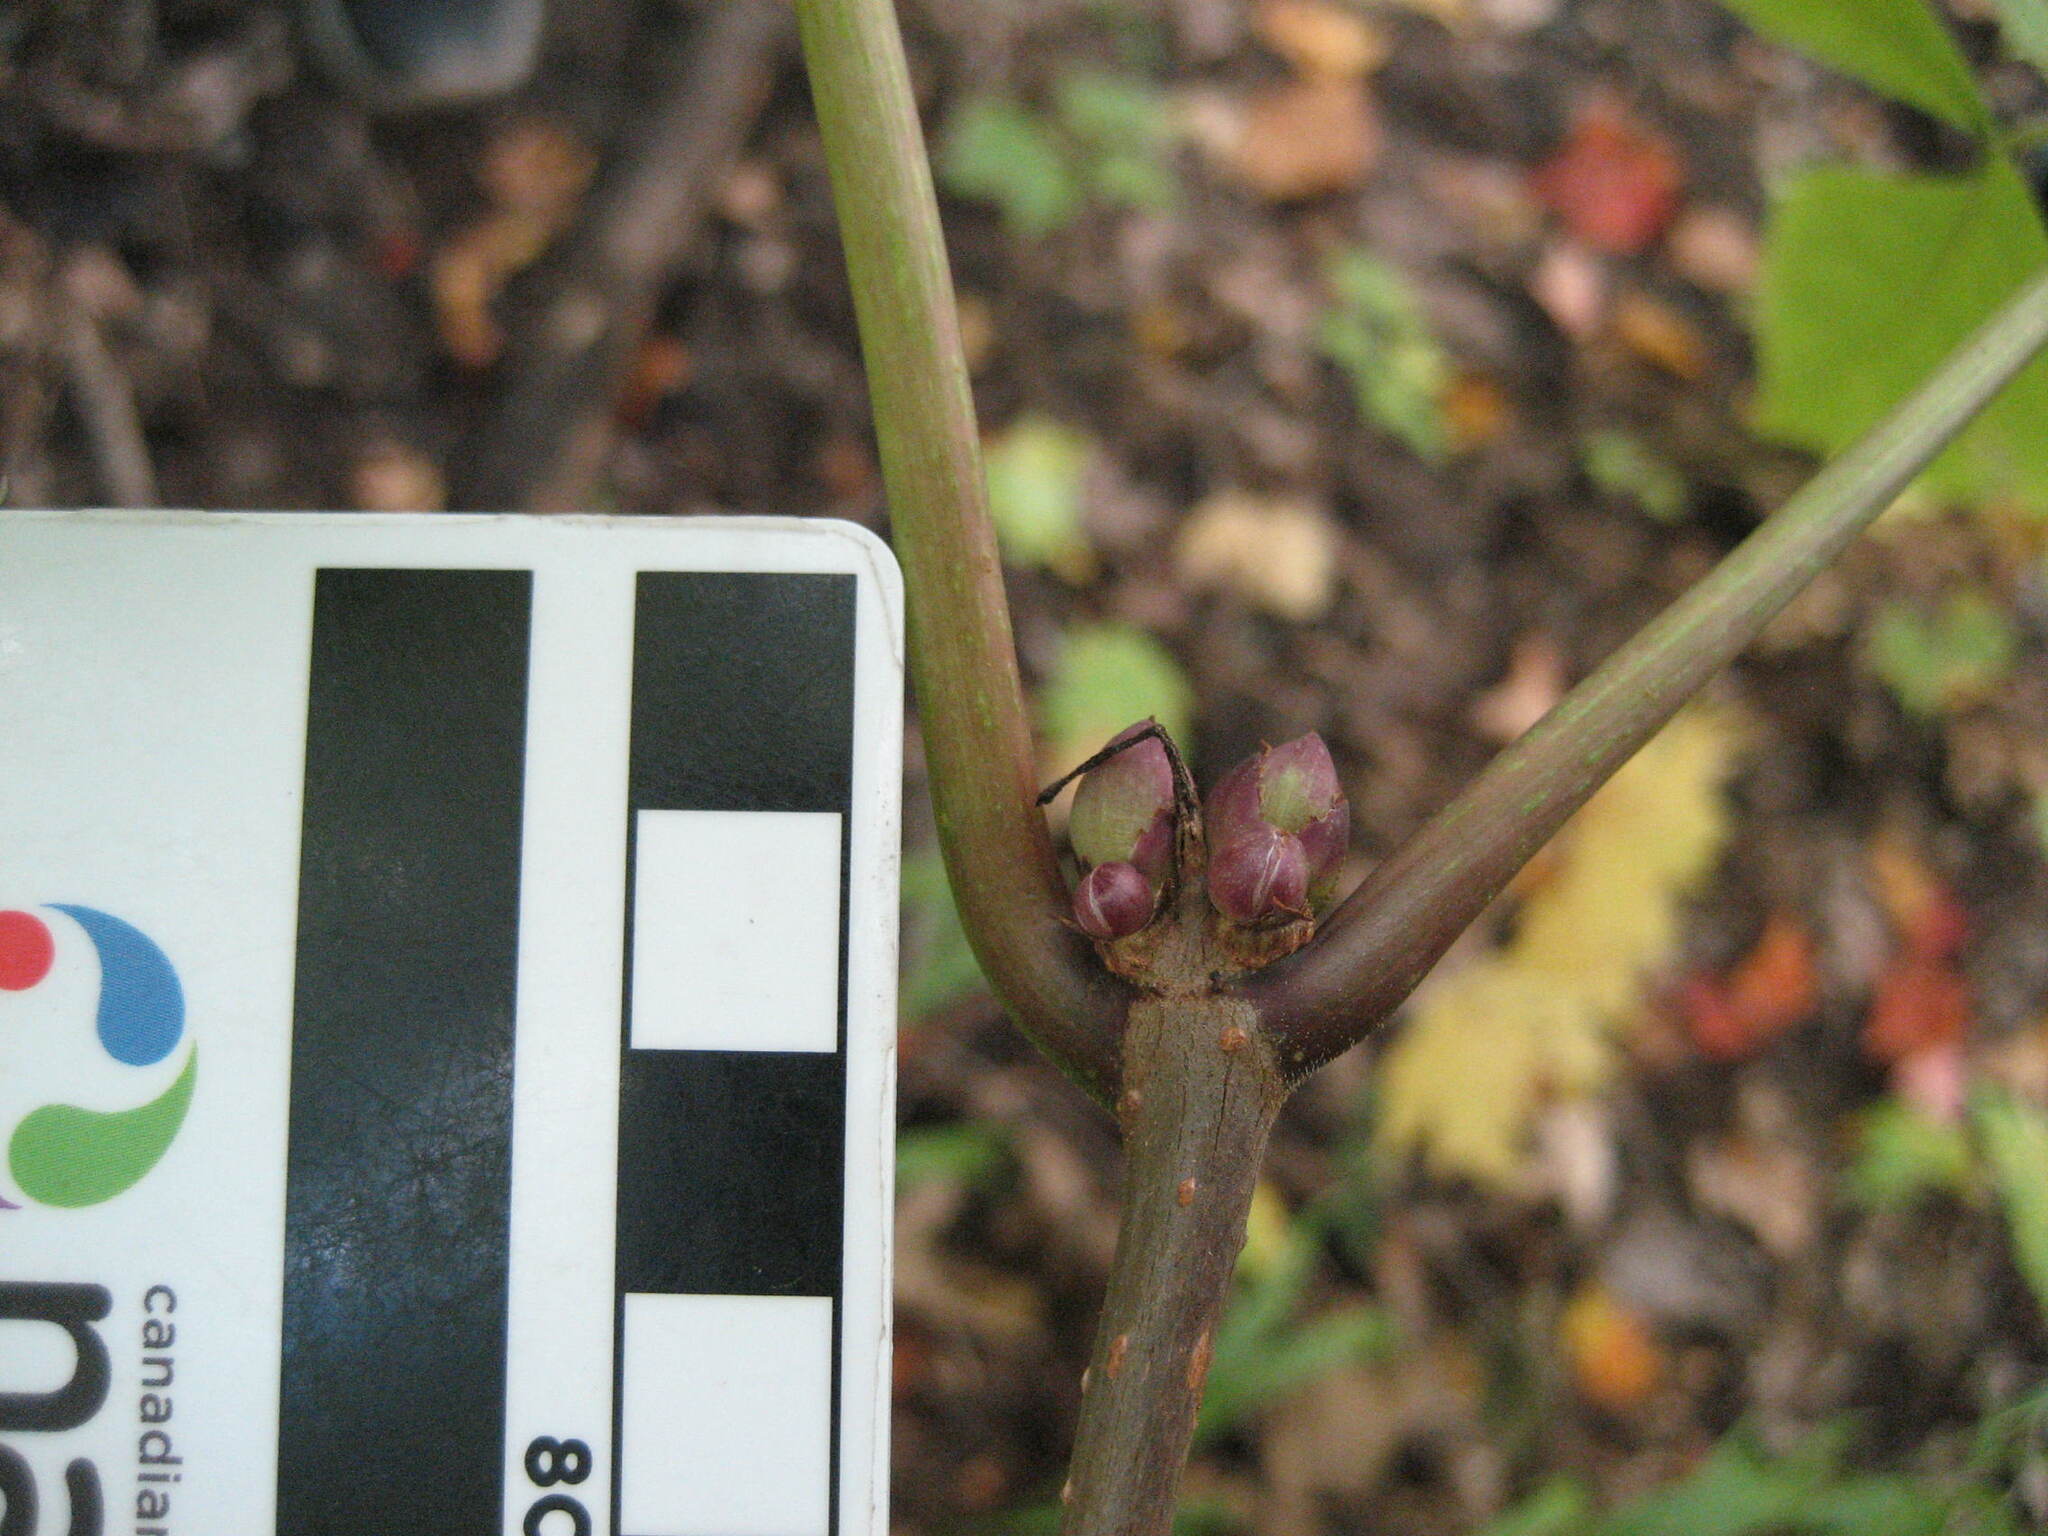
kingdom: Plantae
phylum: Tracheophyta
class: Magnoliopsida
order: Dipsacales
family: Viburnaceae
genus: Sambucus
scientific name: Sambucus racemosa
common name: Red-berried elder
